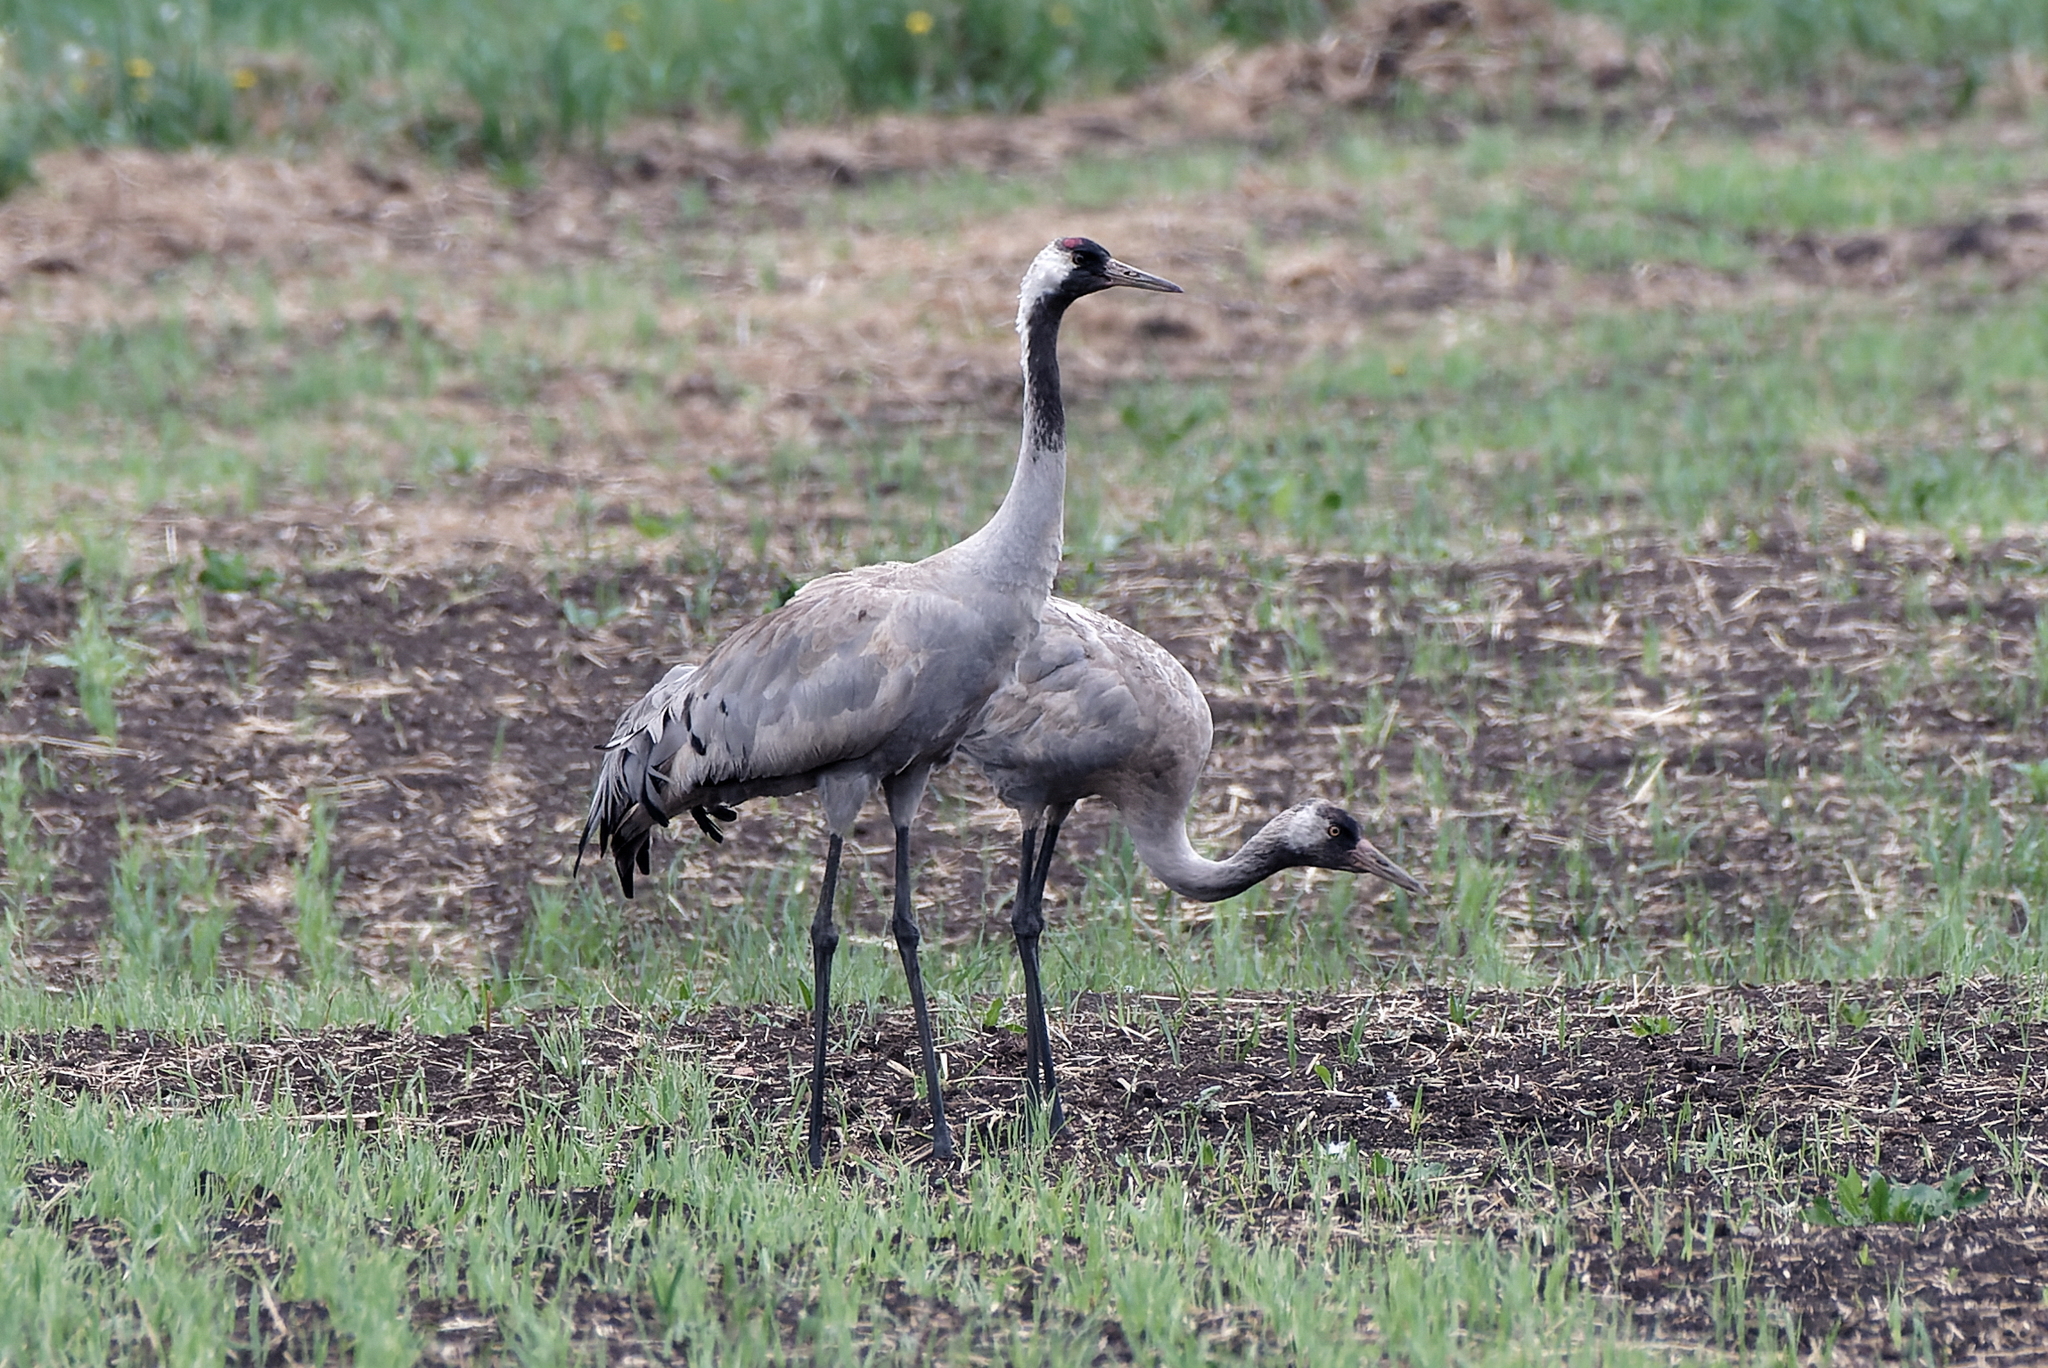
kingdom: Animalia
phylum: Chordata
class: Aves
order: Gruiformes
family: Gruidae
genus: Grus
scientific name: Grus grus
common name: Common crane
